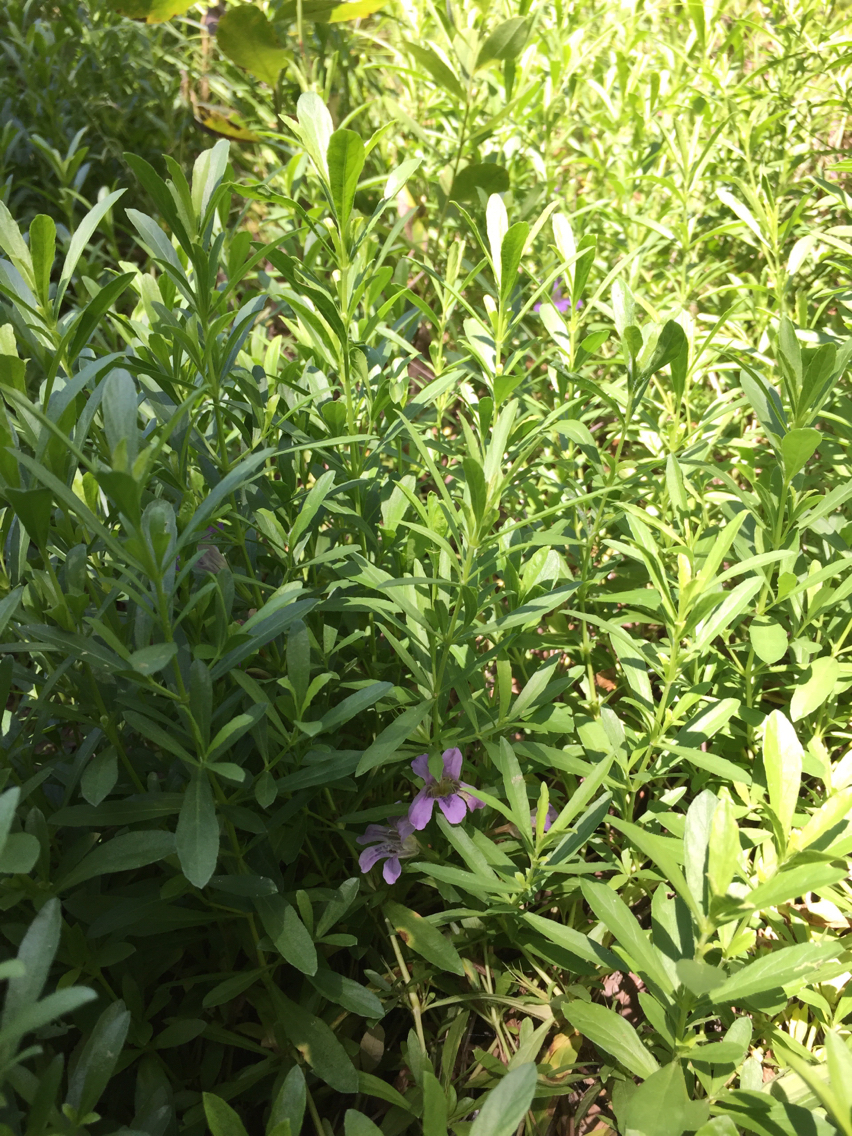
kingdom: Plantae
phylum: Tracheophyta
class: Magnoliopsida
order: Lamiales
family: Acanthaceae
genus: Dyschoriste
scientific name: Dyschoriste linearis
